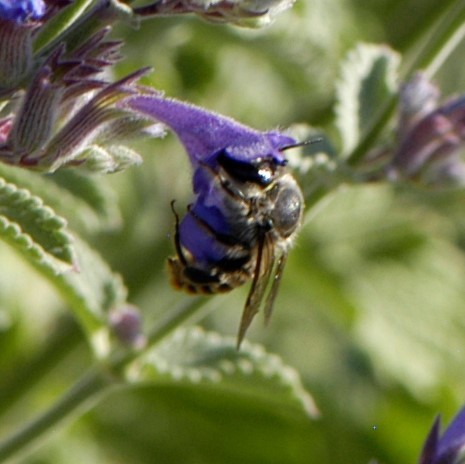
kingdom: Animalia
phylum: Arthropoda
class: Insecta
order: Hymenoptera
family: Megachilidae
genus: Lithurgopsis
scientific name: Lithurgopsis apicalis
